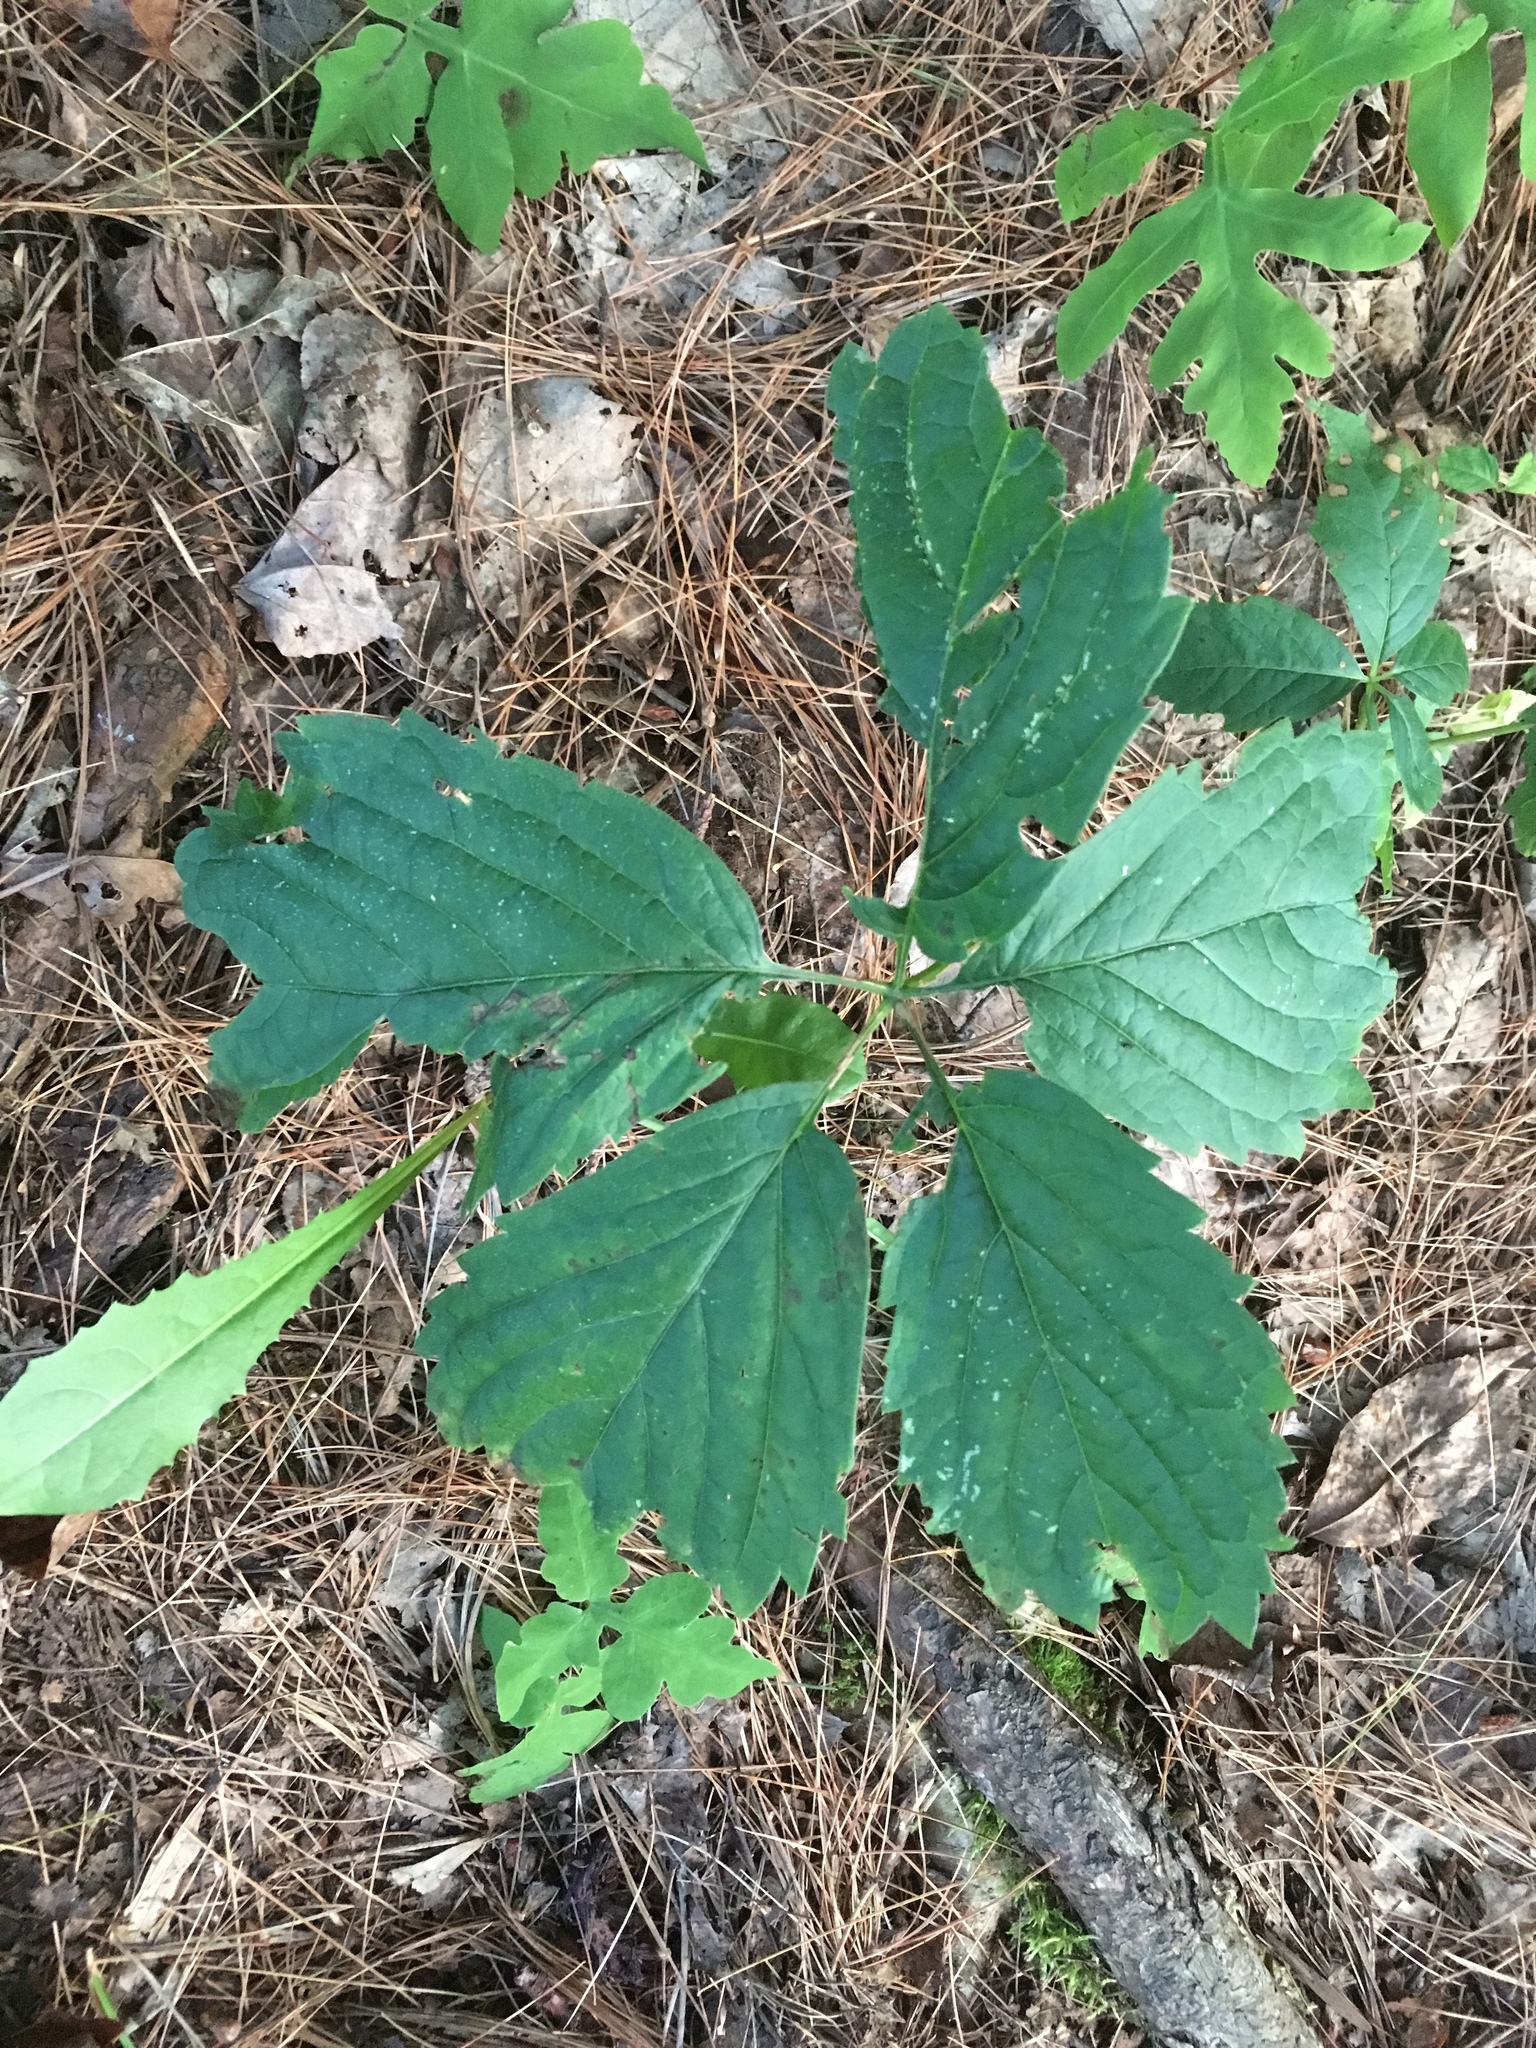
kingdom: Plantae
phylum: Tracheophyta
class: Magnoliopsida
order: Vitales
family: Vitaceae
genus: Parthenocissus
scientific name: Parthenocissus inserta
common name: False virginia-creeper
